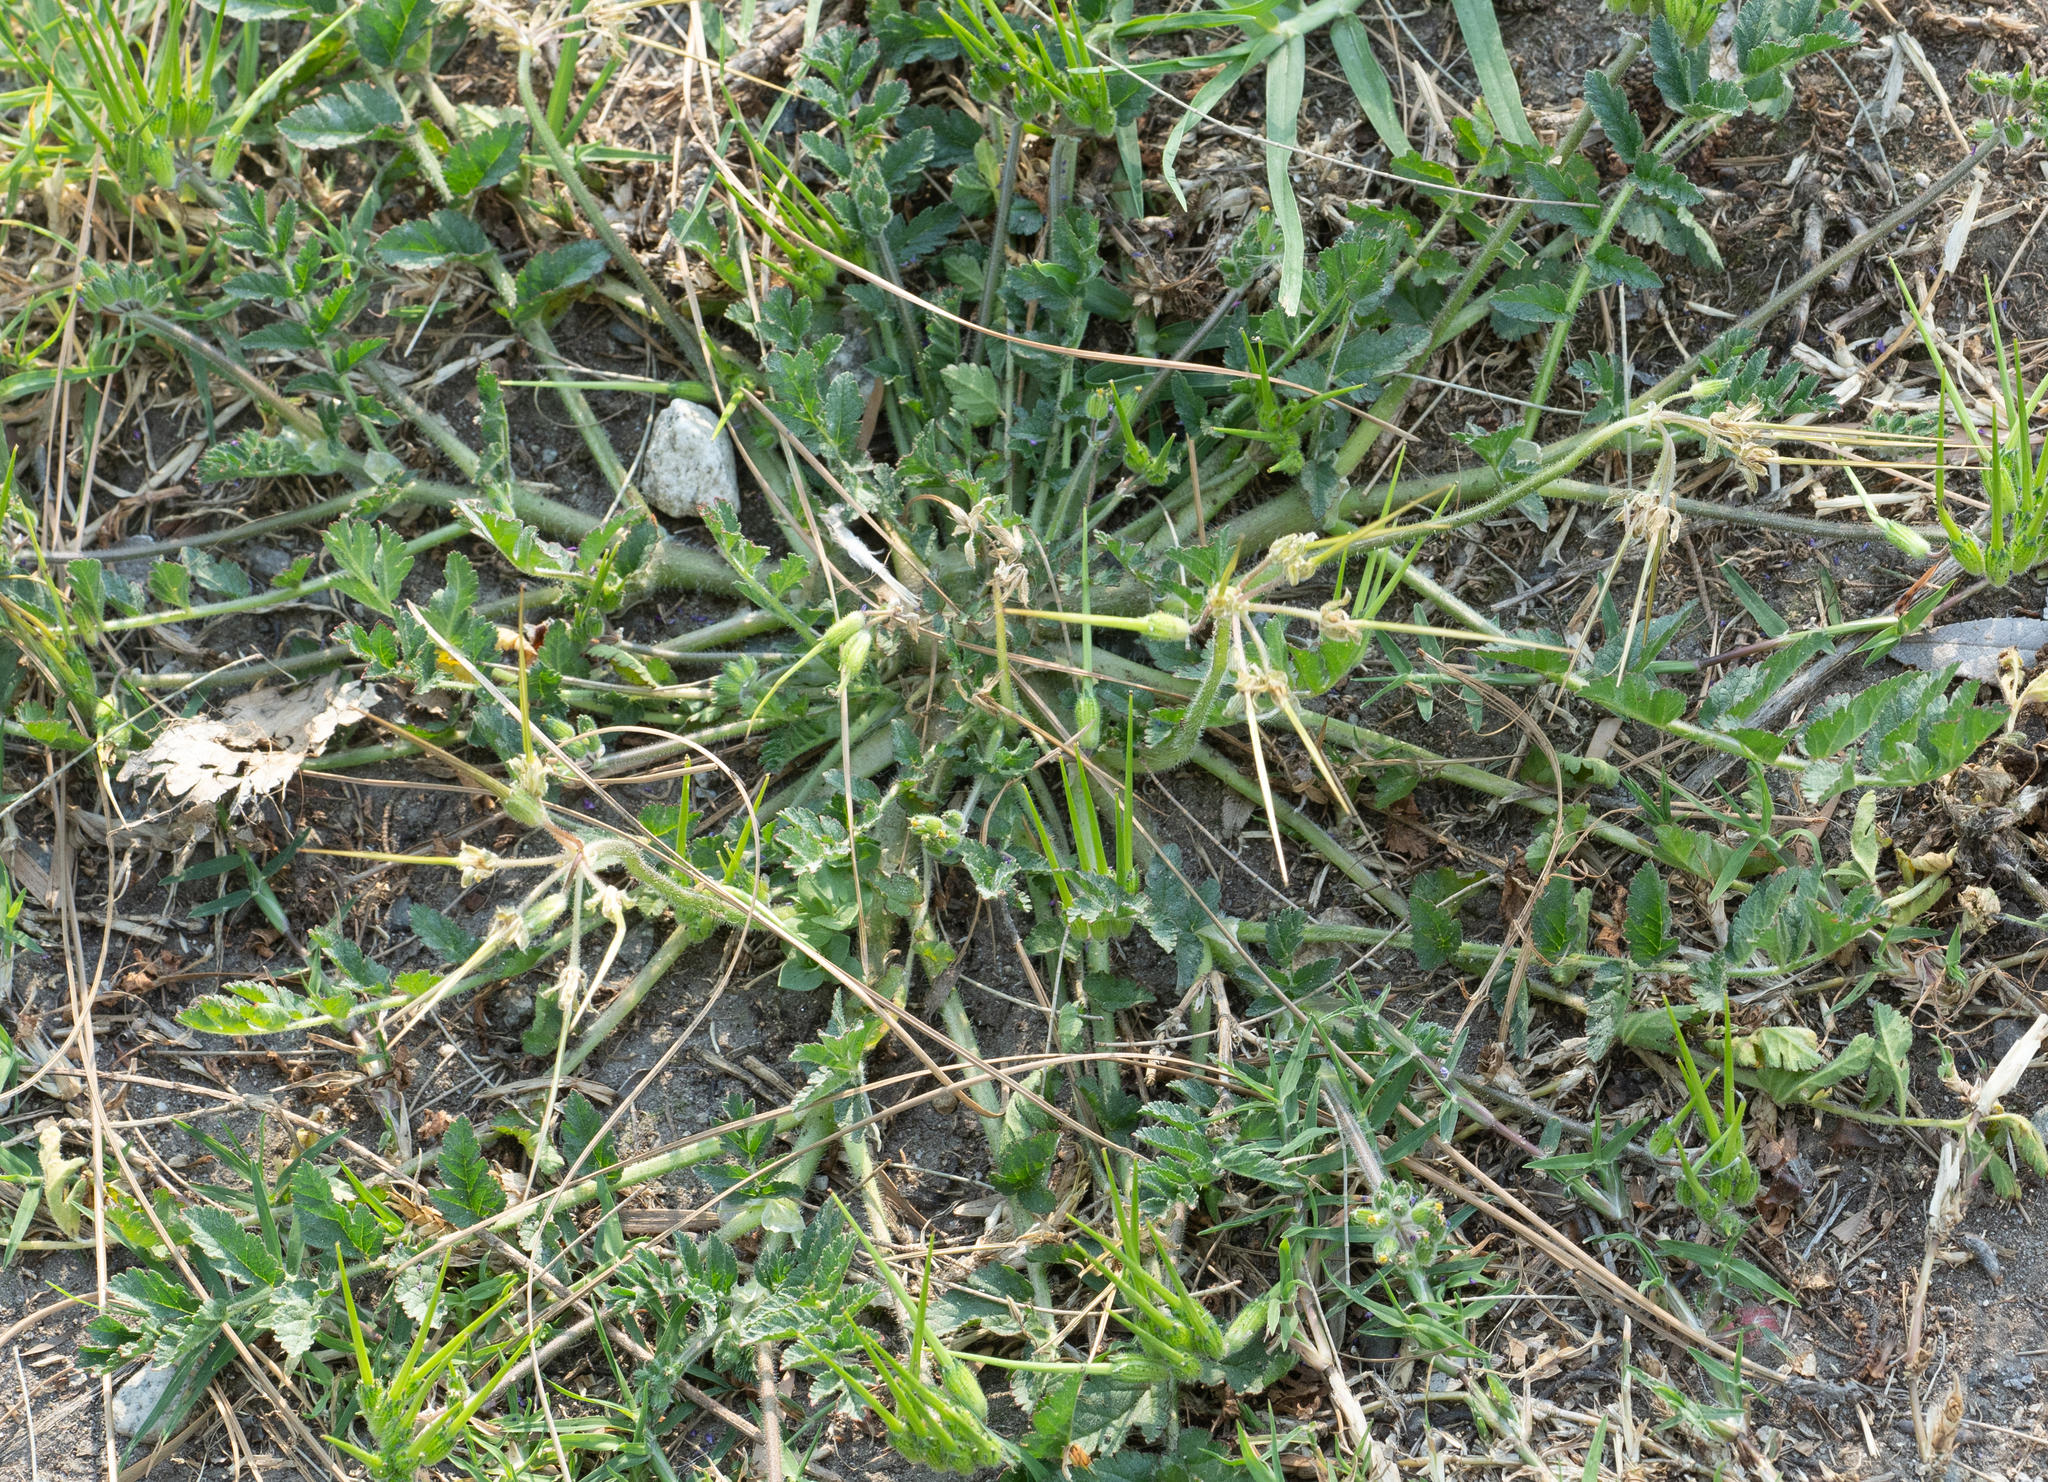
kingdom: Plantae
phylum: Tracheophyta
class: Magnoliopsida
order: Geraniales
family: Geraniaceae
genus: Erodium
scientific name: Erodium moschatum
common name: Musk stork's-bill
